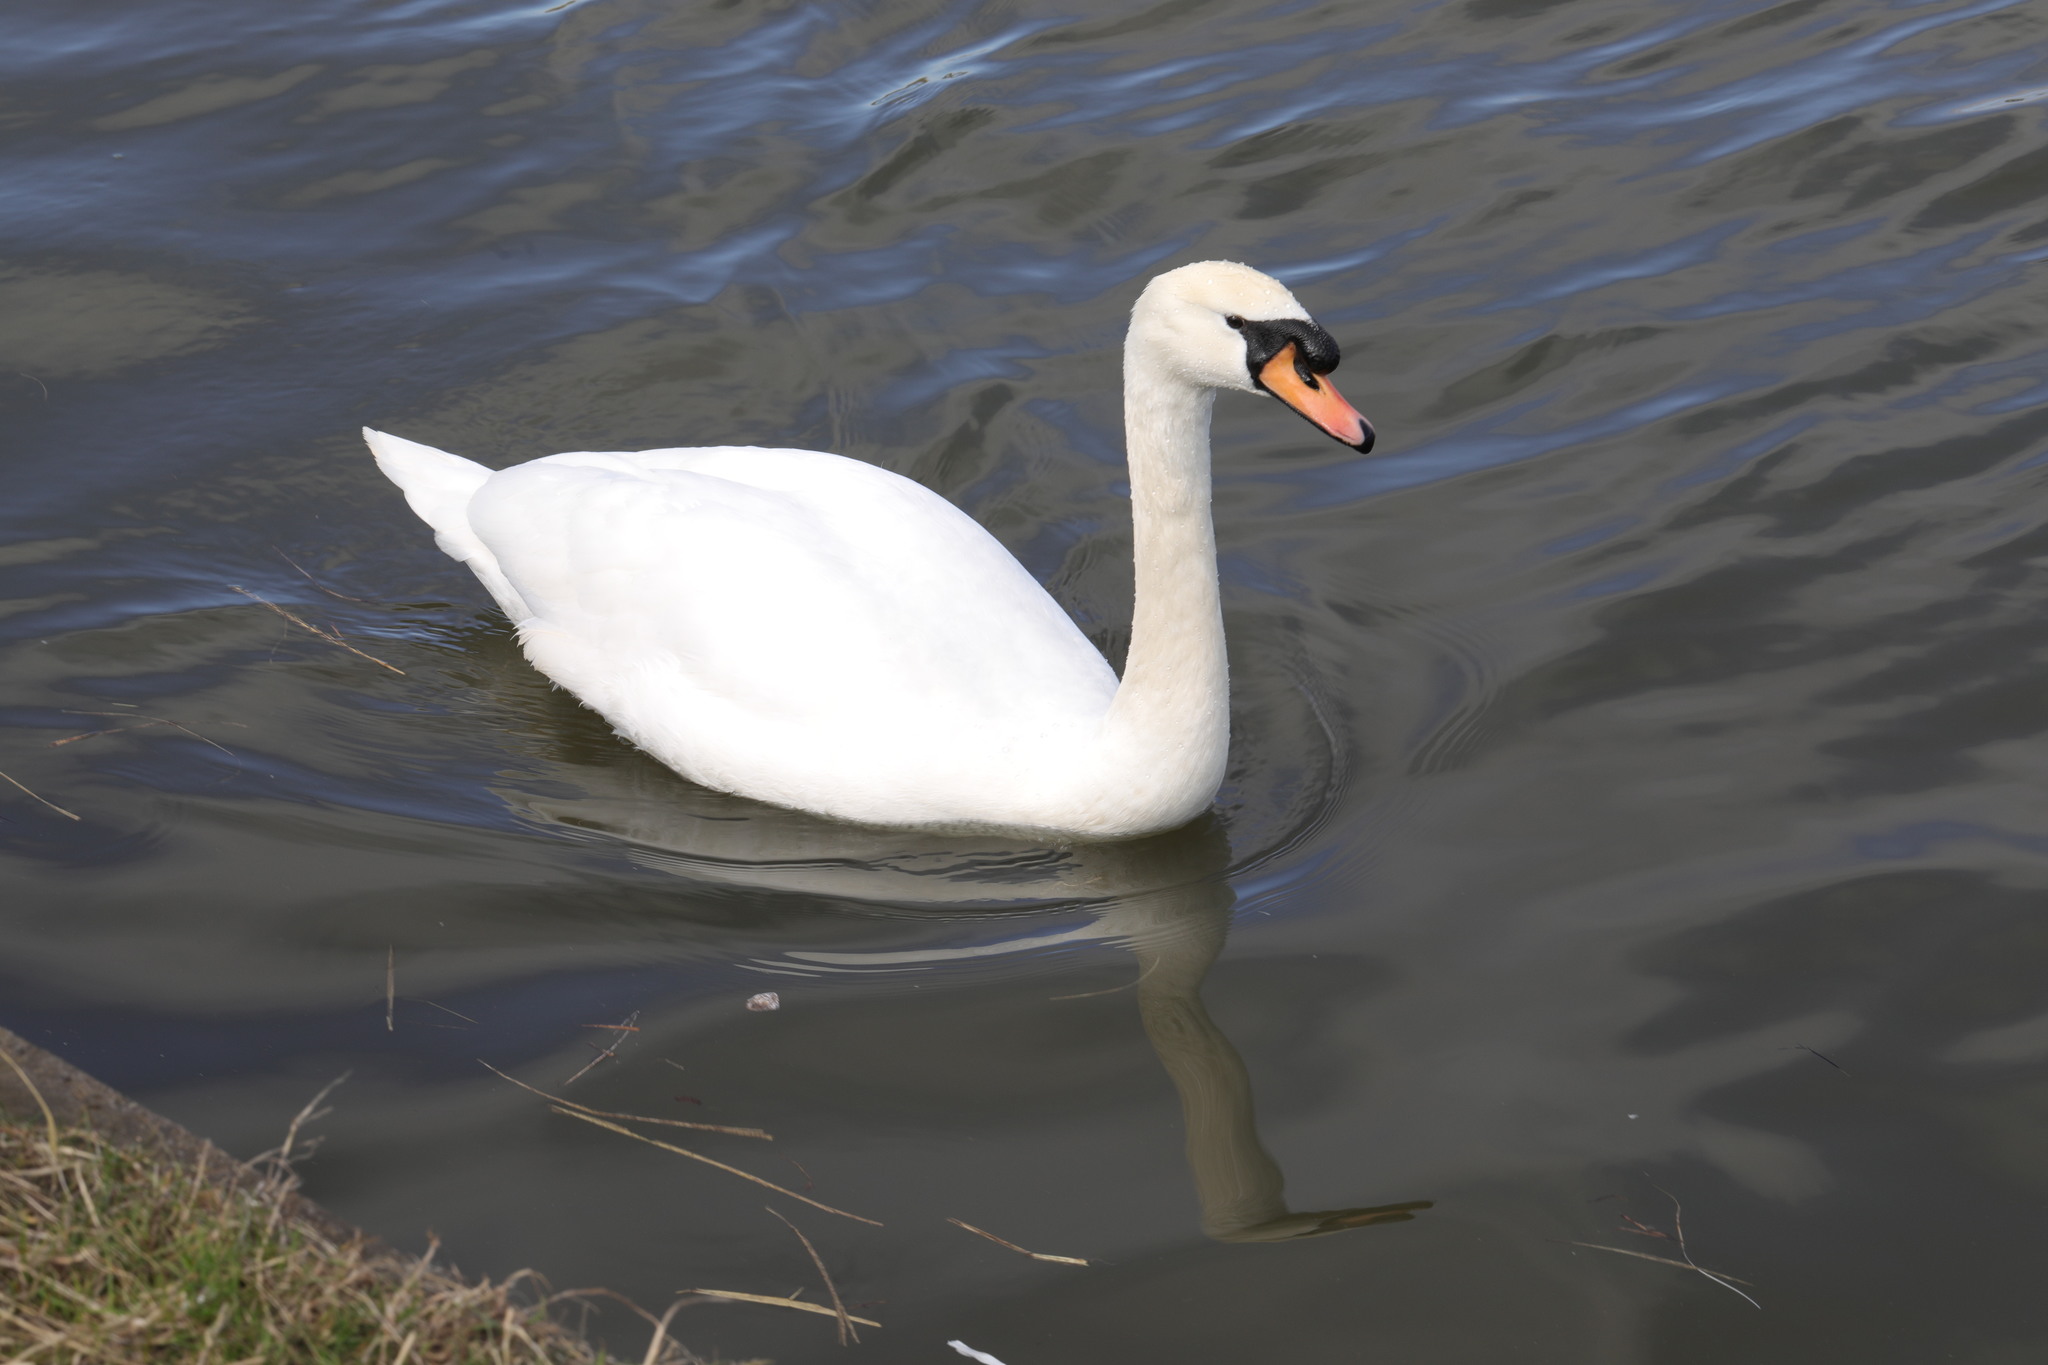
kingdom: Animalia
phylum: Chordata
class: Aves
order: Anseriformes
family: Anatidae
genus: Cygnus
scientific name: Cygnus olor
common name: Mute swan
